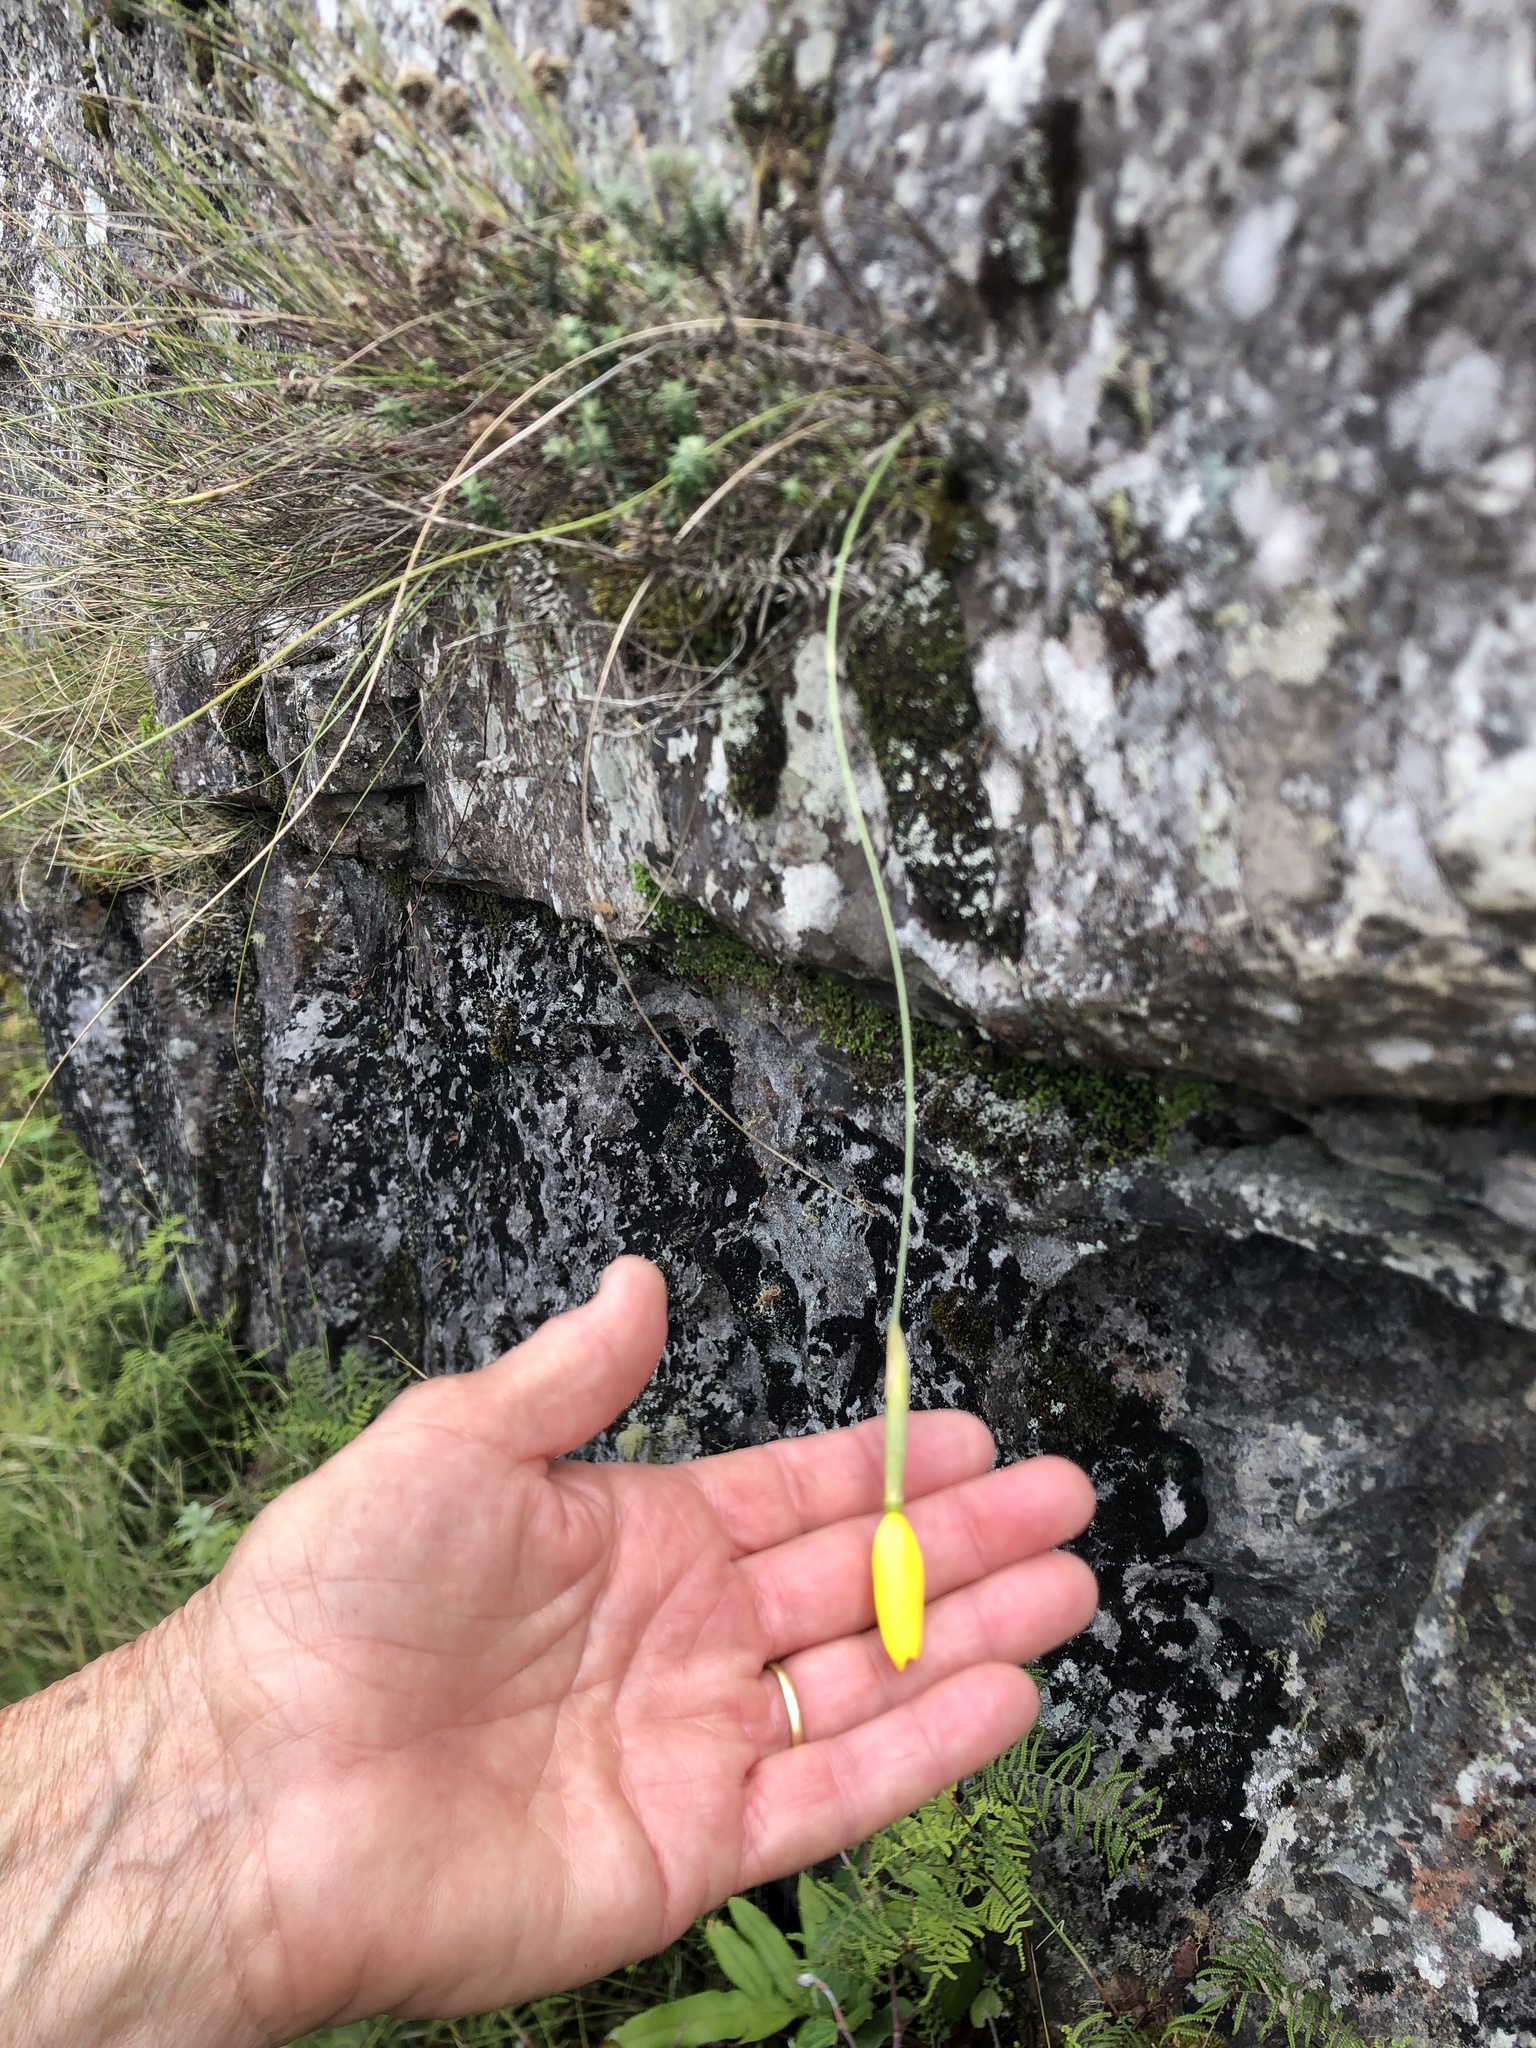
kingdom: Plantae
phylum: Tracheophyta
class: Liliopsida
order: Asparagales
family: Iridaceae
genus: Bobartia
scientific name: Bobartia filiformis
